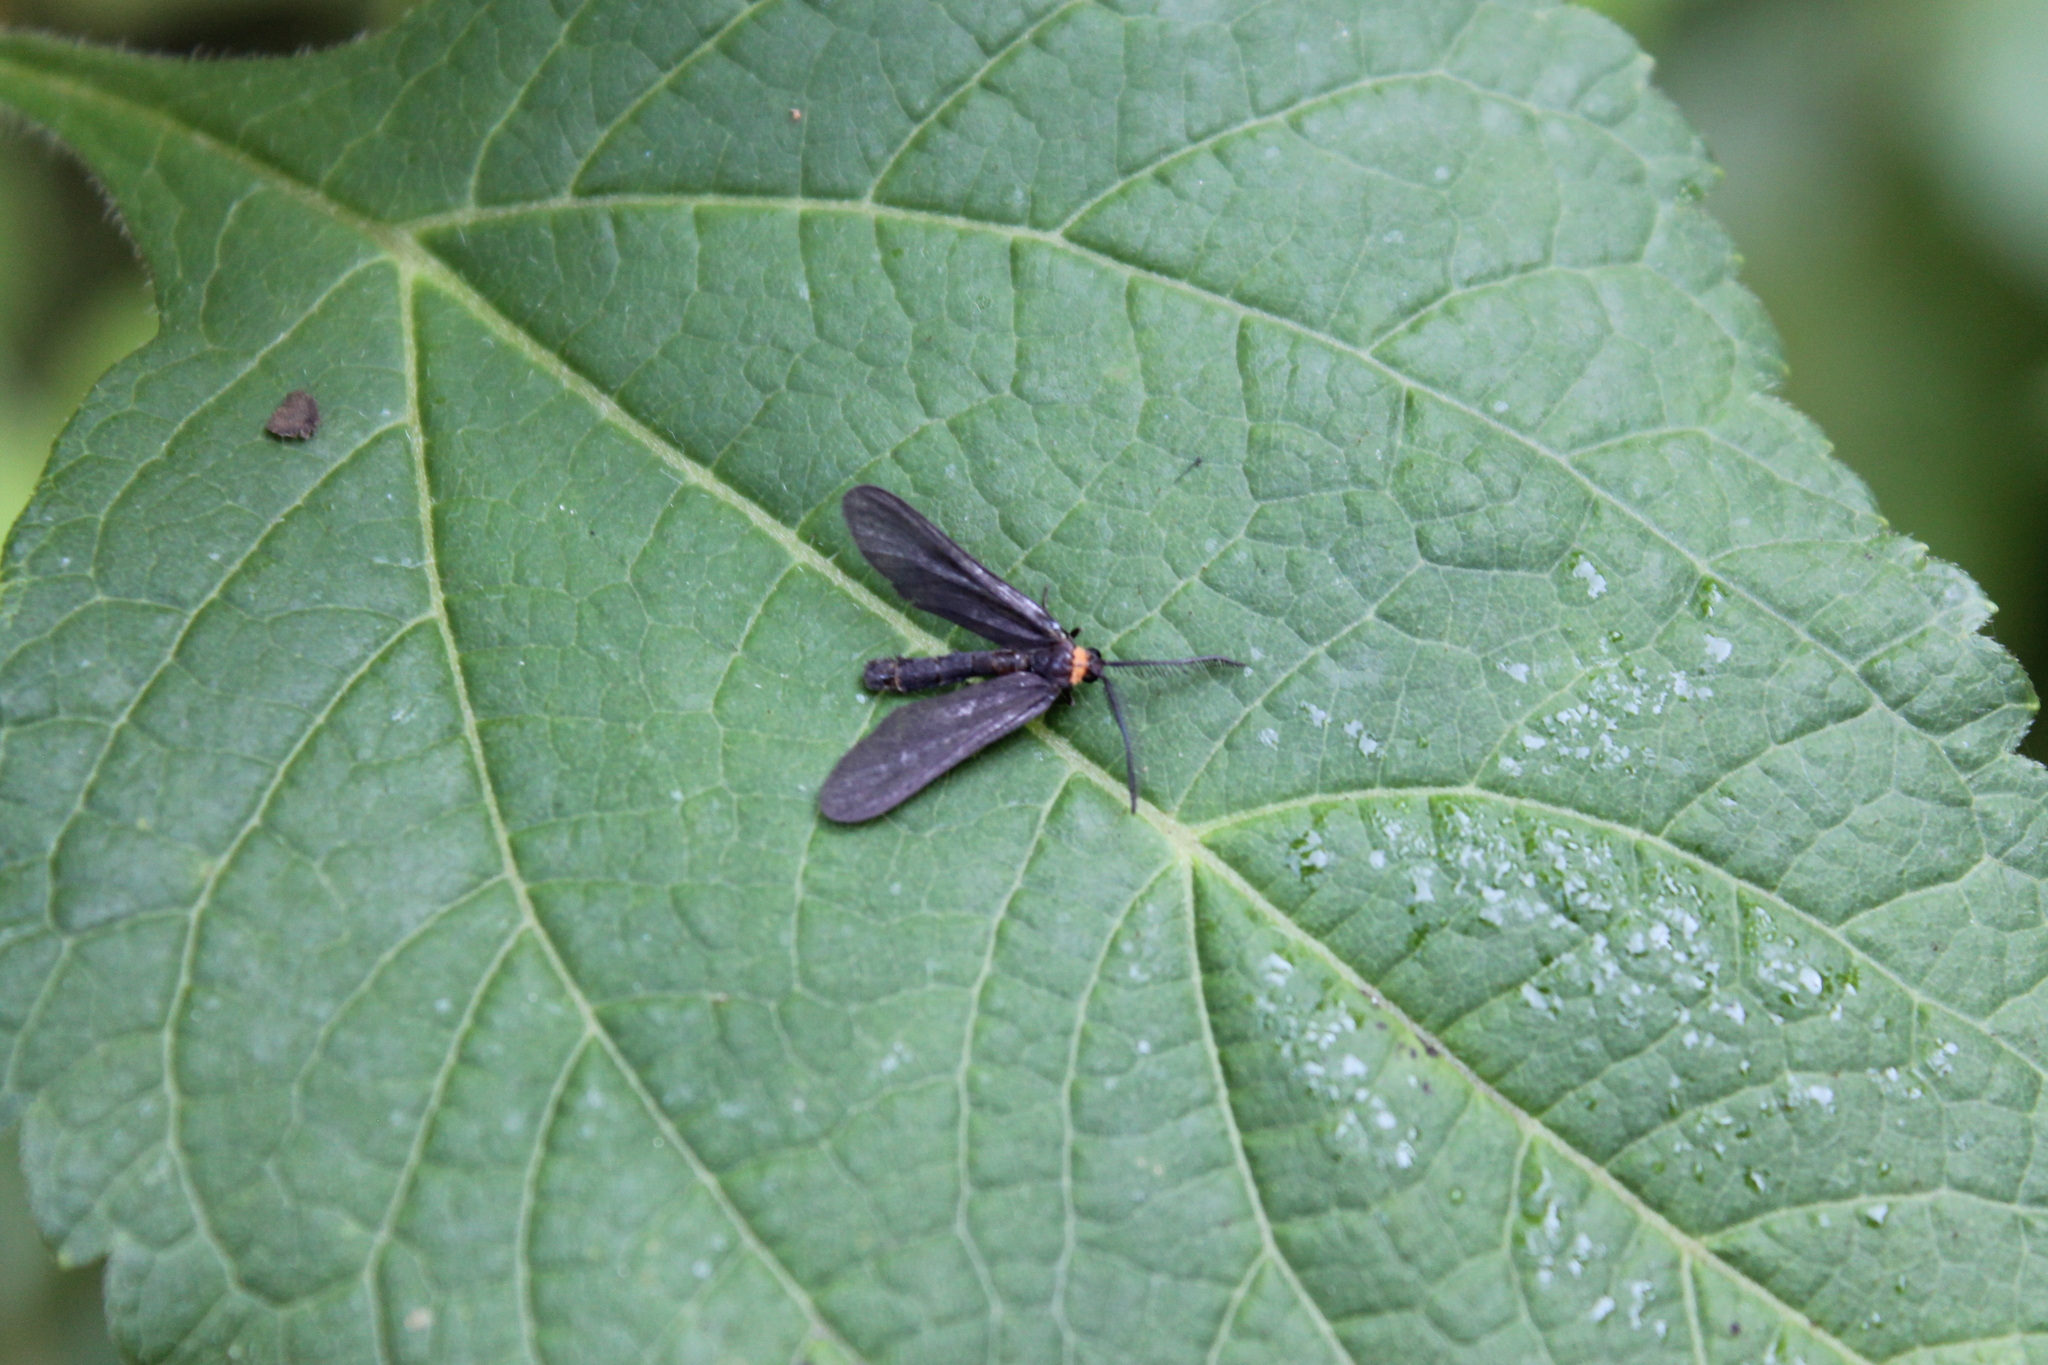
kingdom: Animalia
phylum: Arthropoda
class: Insecta
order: Lepidoptera
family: Zygaenidae
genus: Harrisina
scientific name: Harrisina americana
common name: Grapeleaf skeletonizer moth
